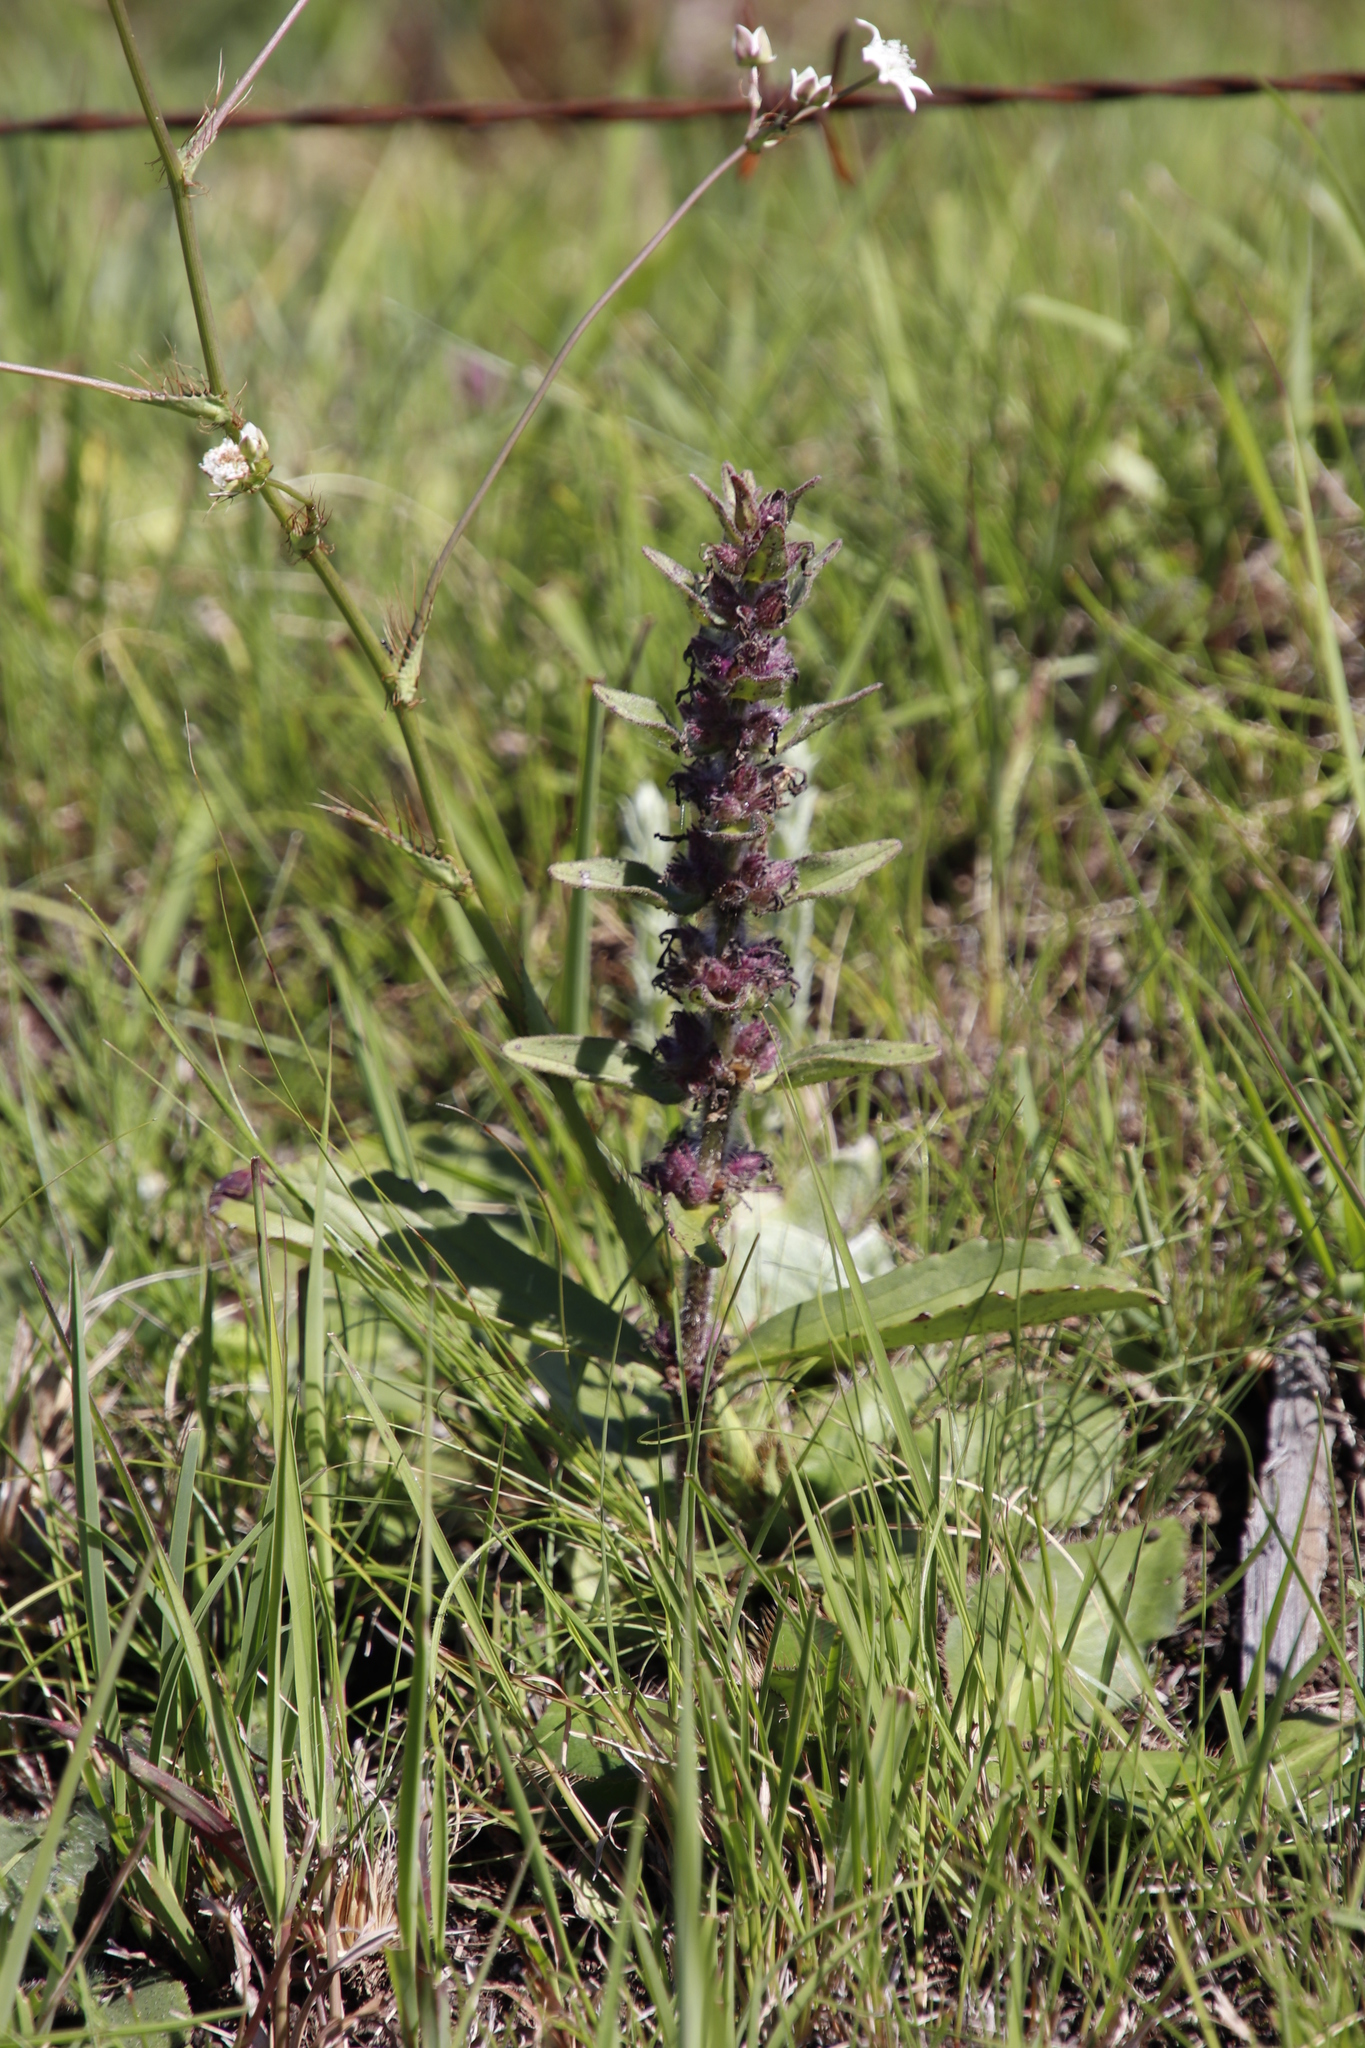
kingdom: Plantae
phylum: Tracheophyta
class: Magnoliopsida
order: Lamiales
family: Lamiaceae
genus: Ajuga
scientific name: Ajuga ophrydis
